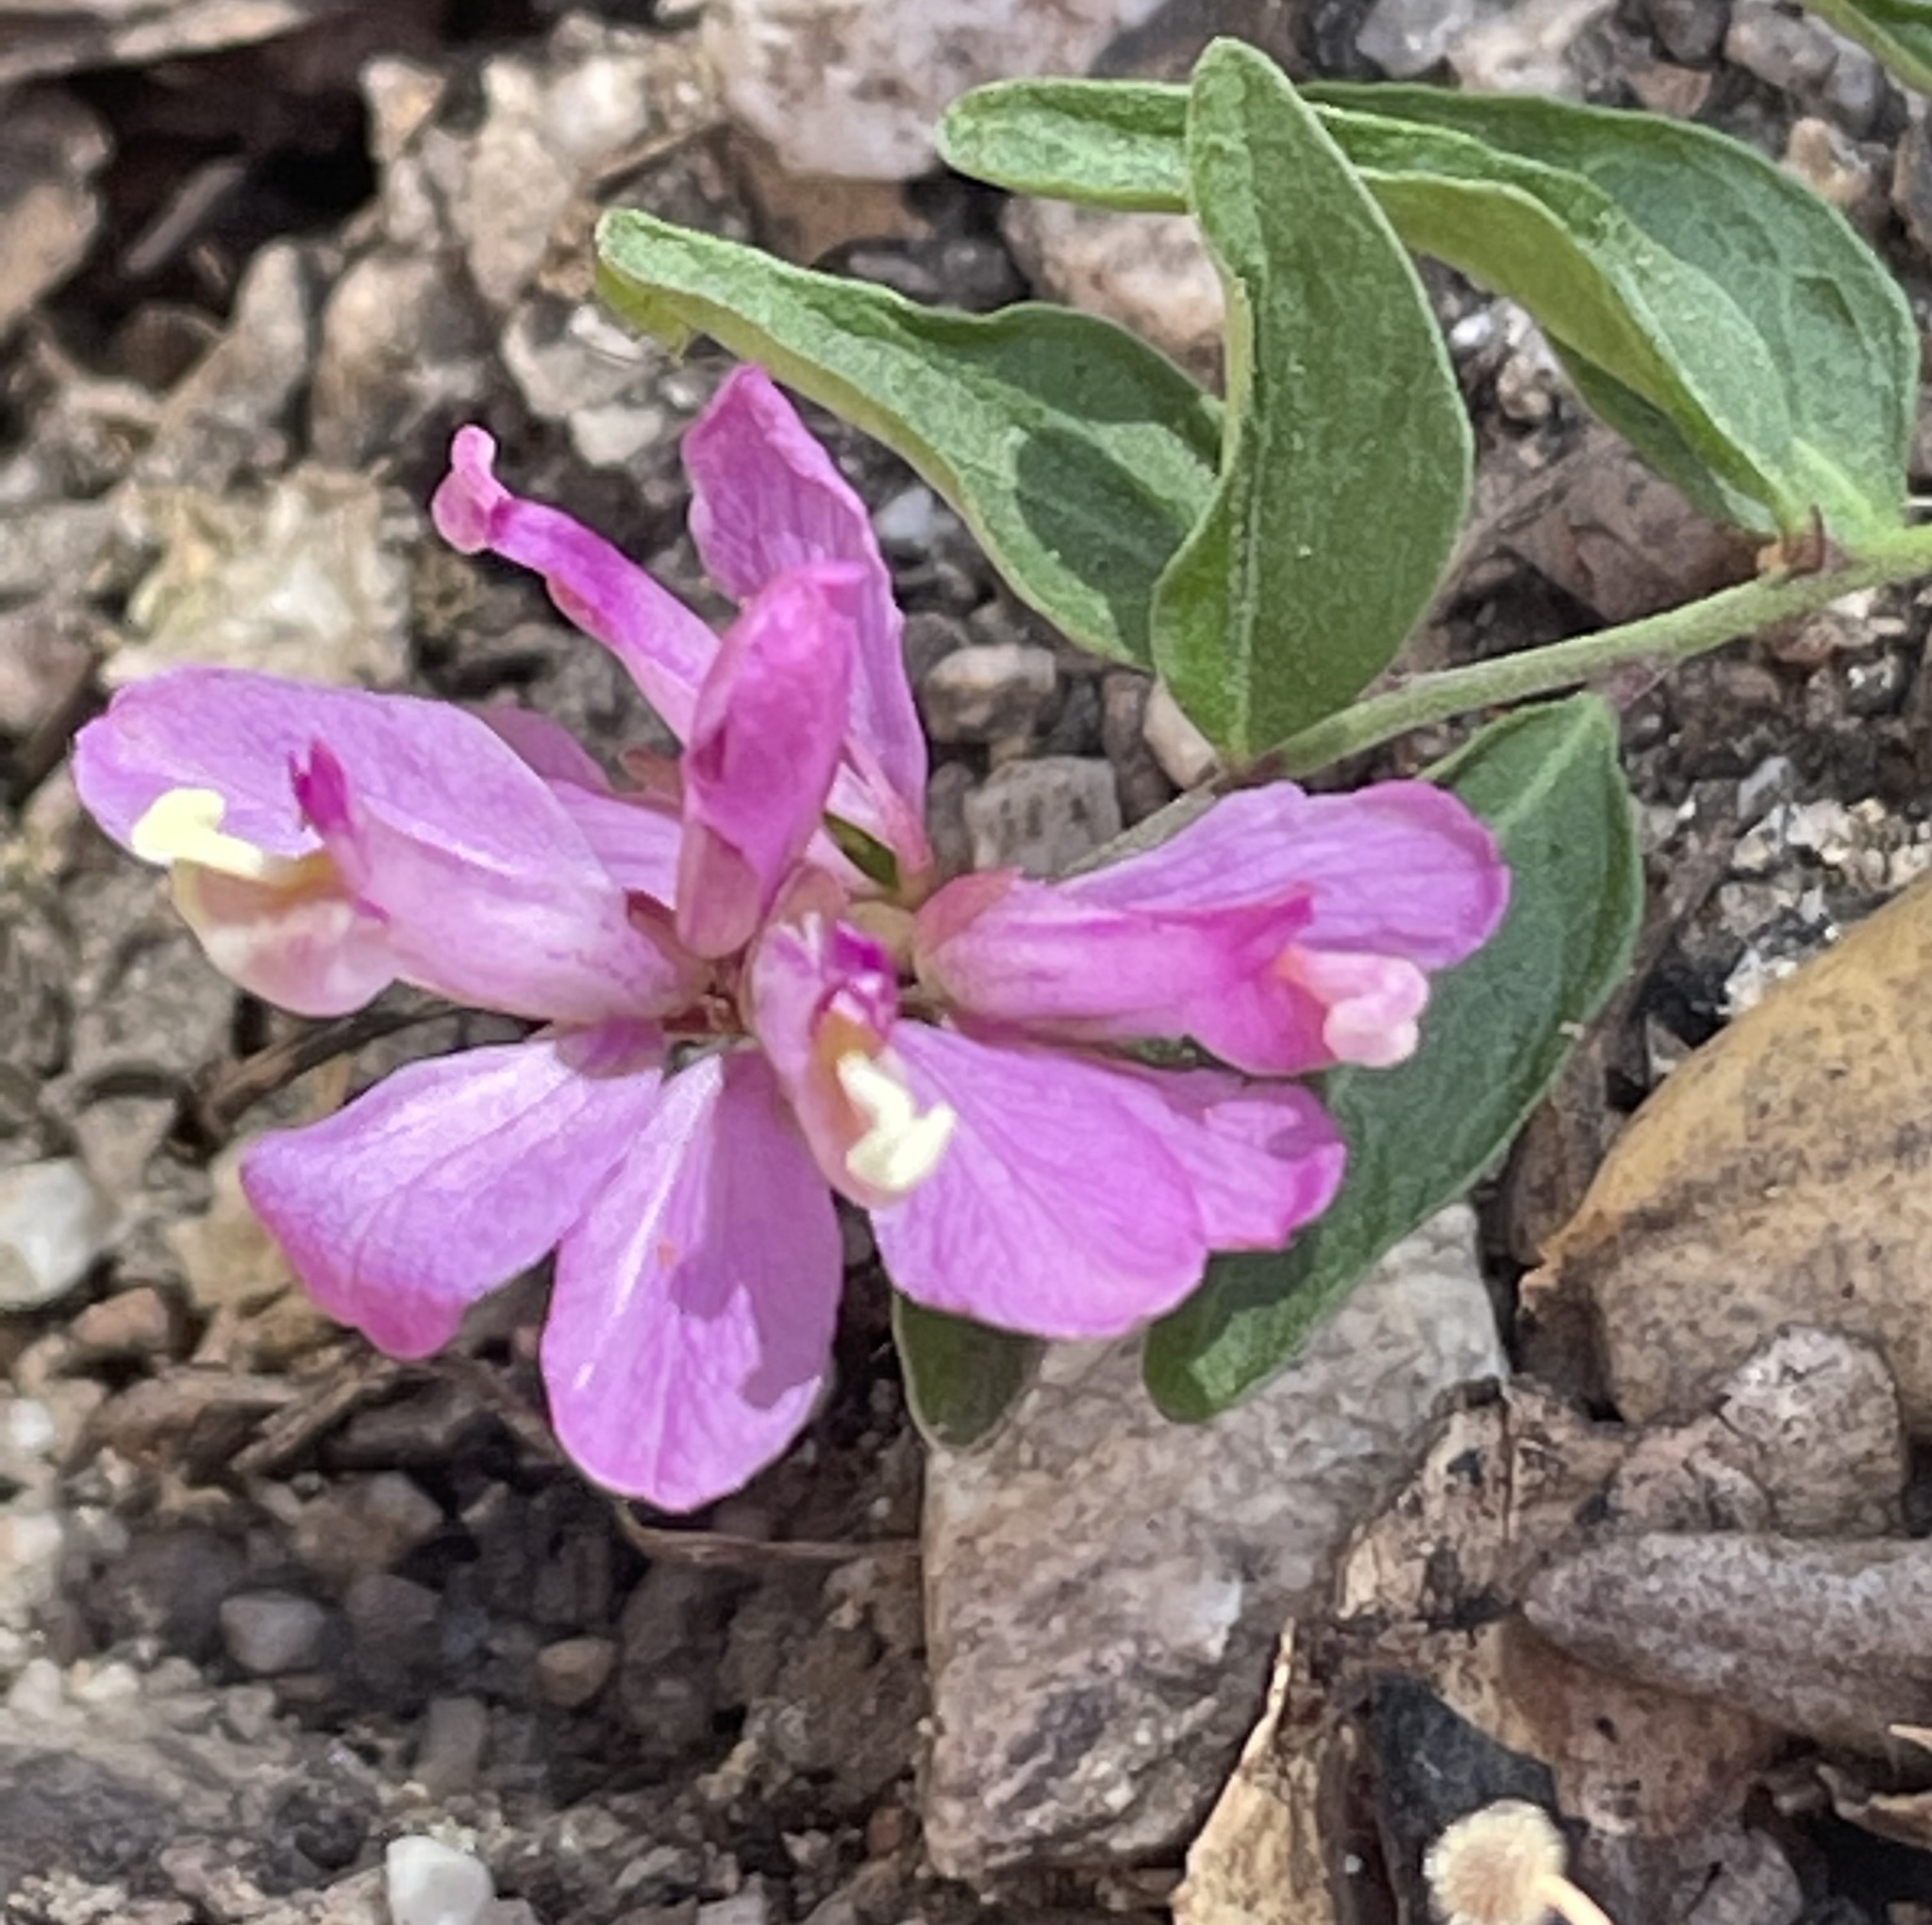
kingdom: Plantae
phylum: Tracheophyta
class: Magnoliopsida
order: Fabales
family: Polygalaceae
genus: Rhinotropis
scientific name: Rhinotropis californica
